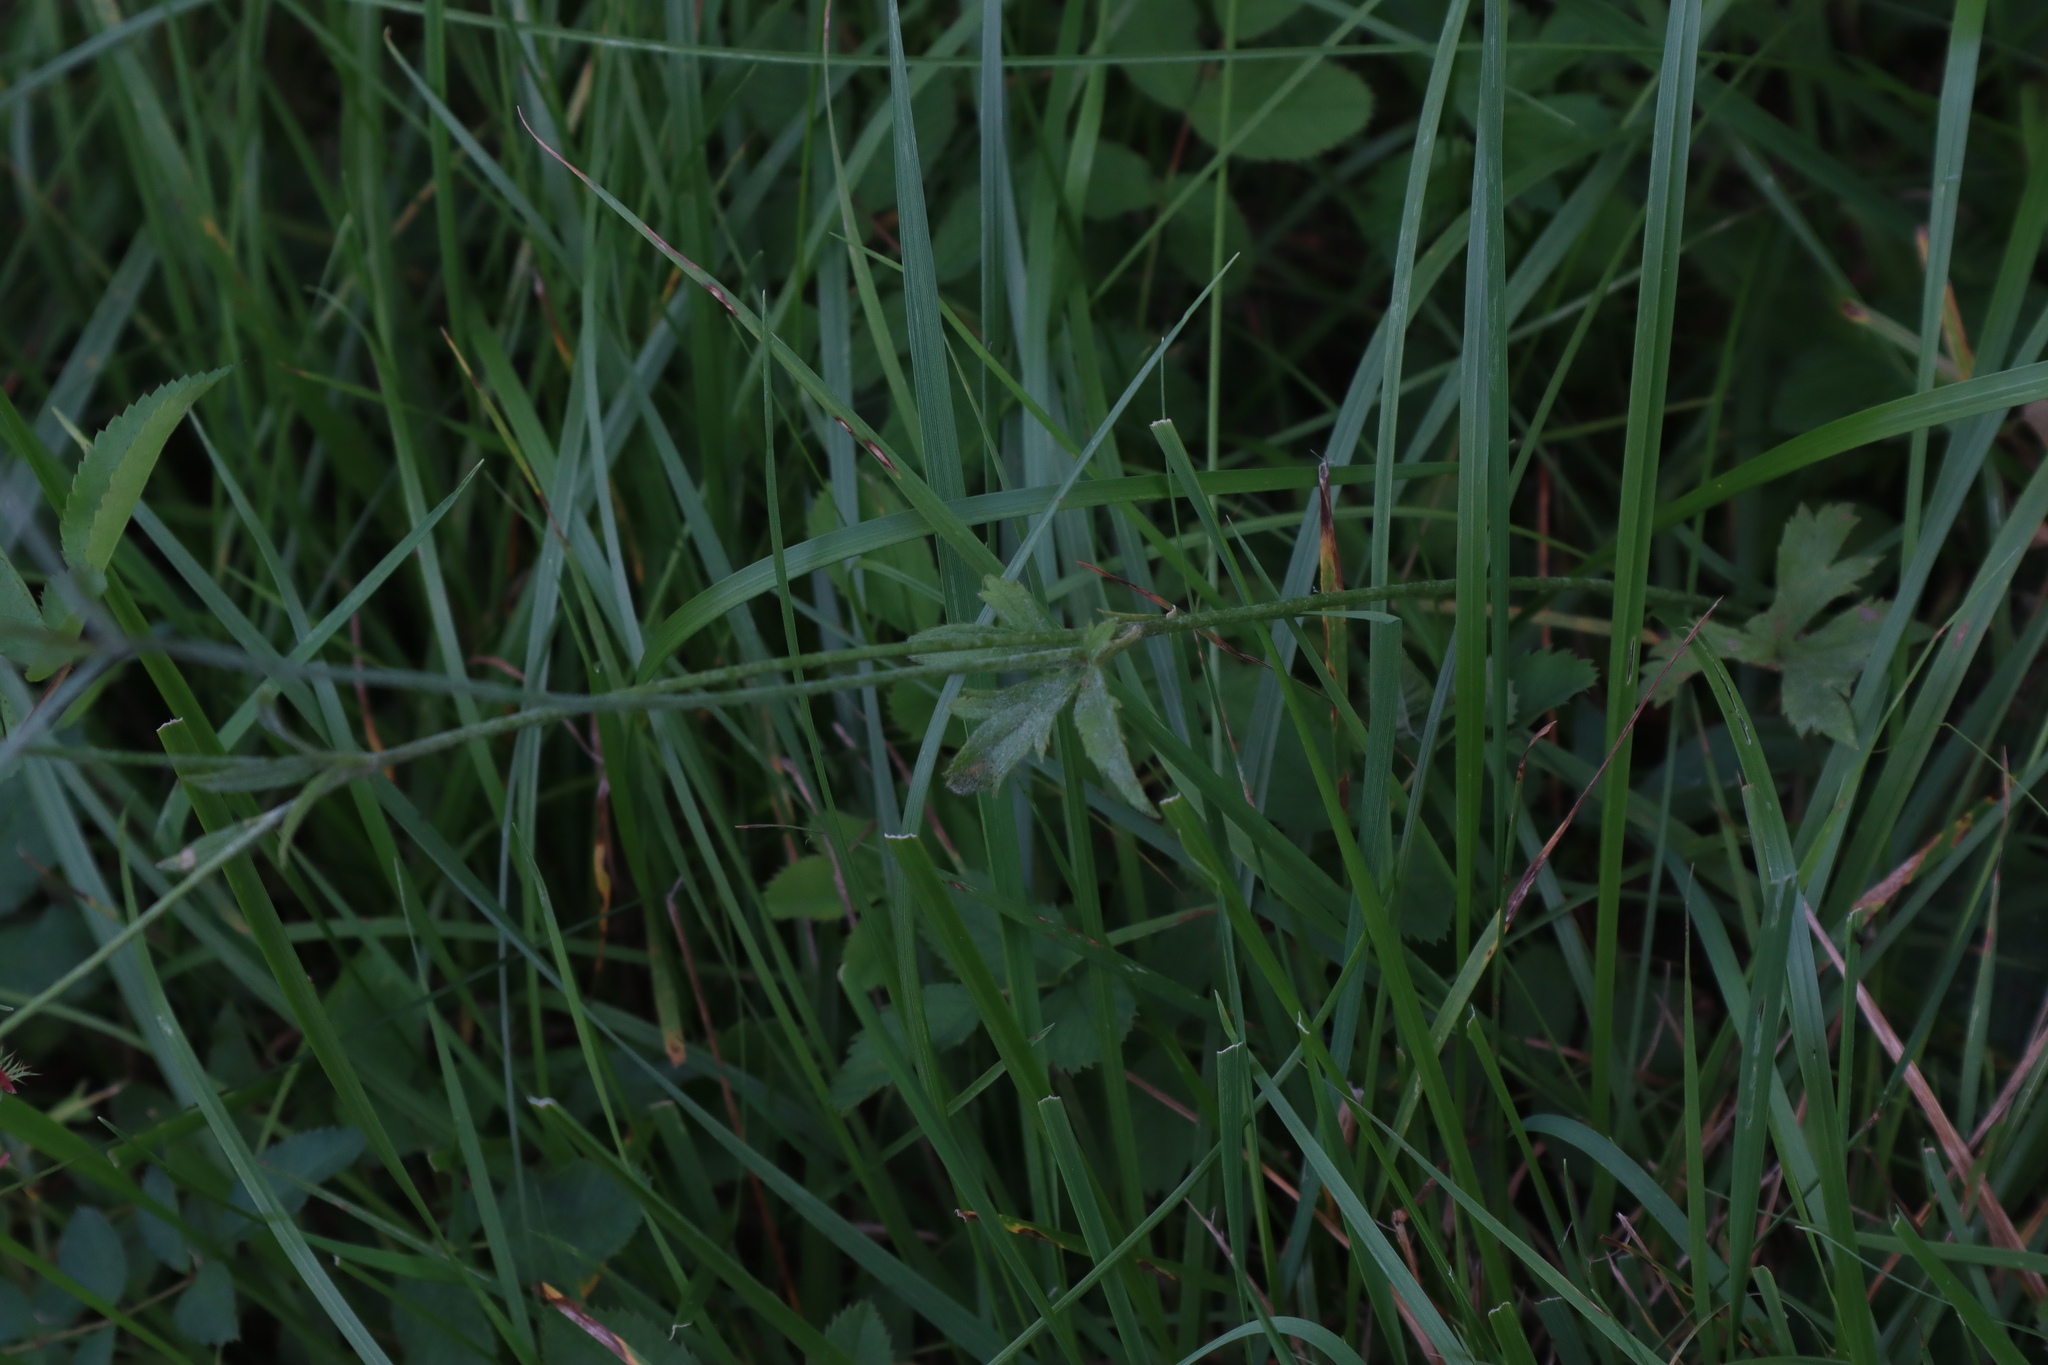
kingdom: Plantae
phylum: Tracheophyta
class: Magnoliopsida
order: Ranunculales
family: Ranunculaceae
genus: Ranunculus
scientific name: Ranunculus acris
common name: Meadow buttercup
